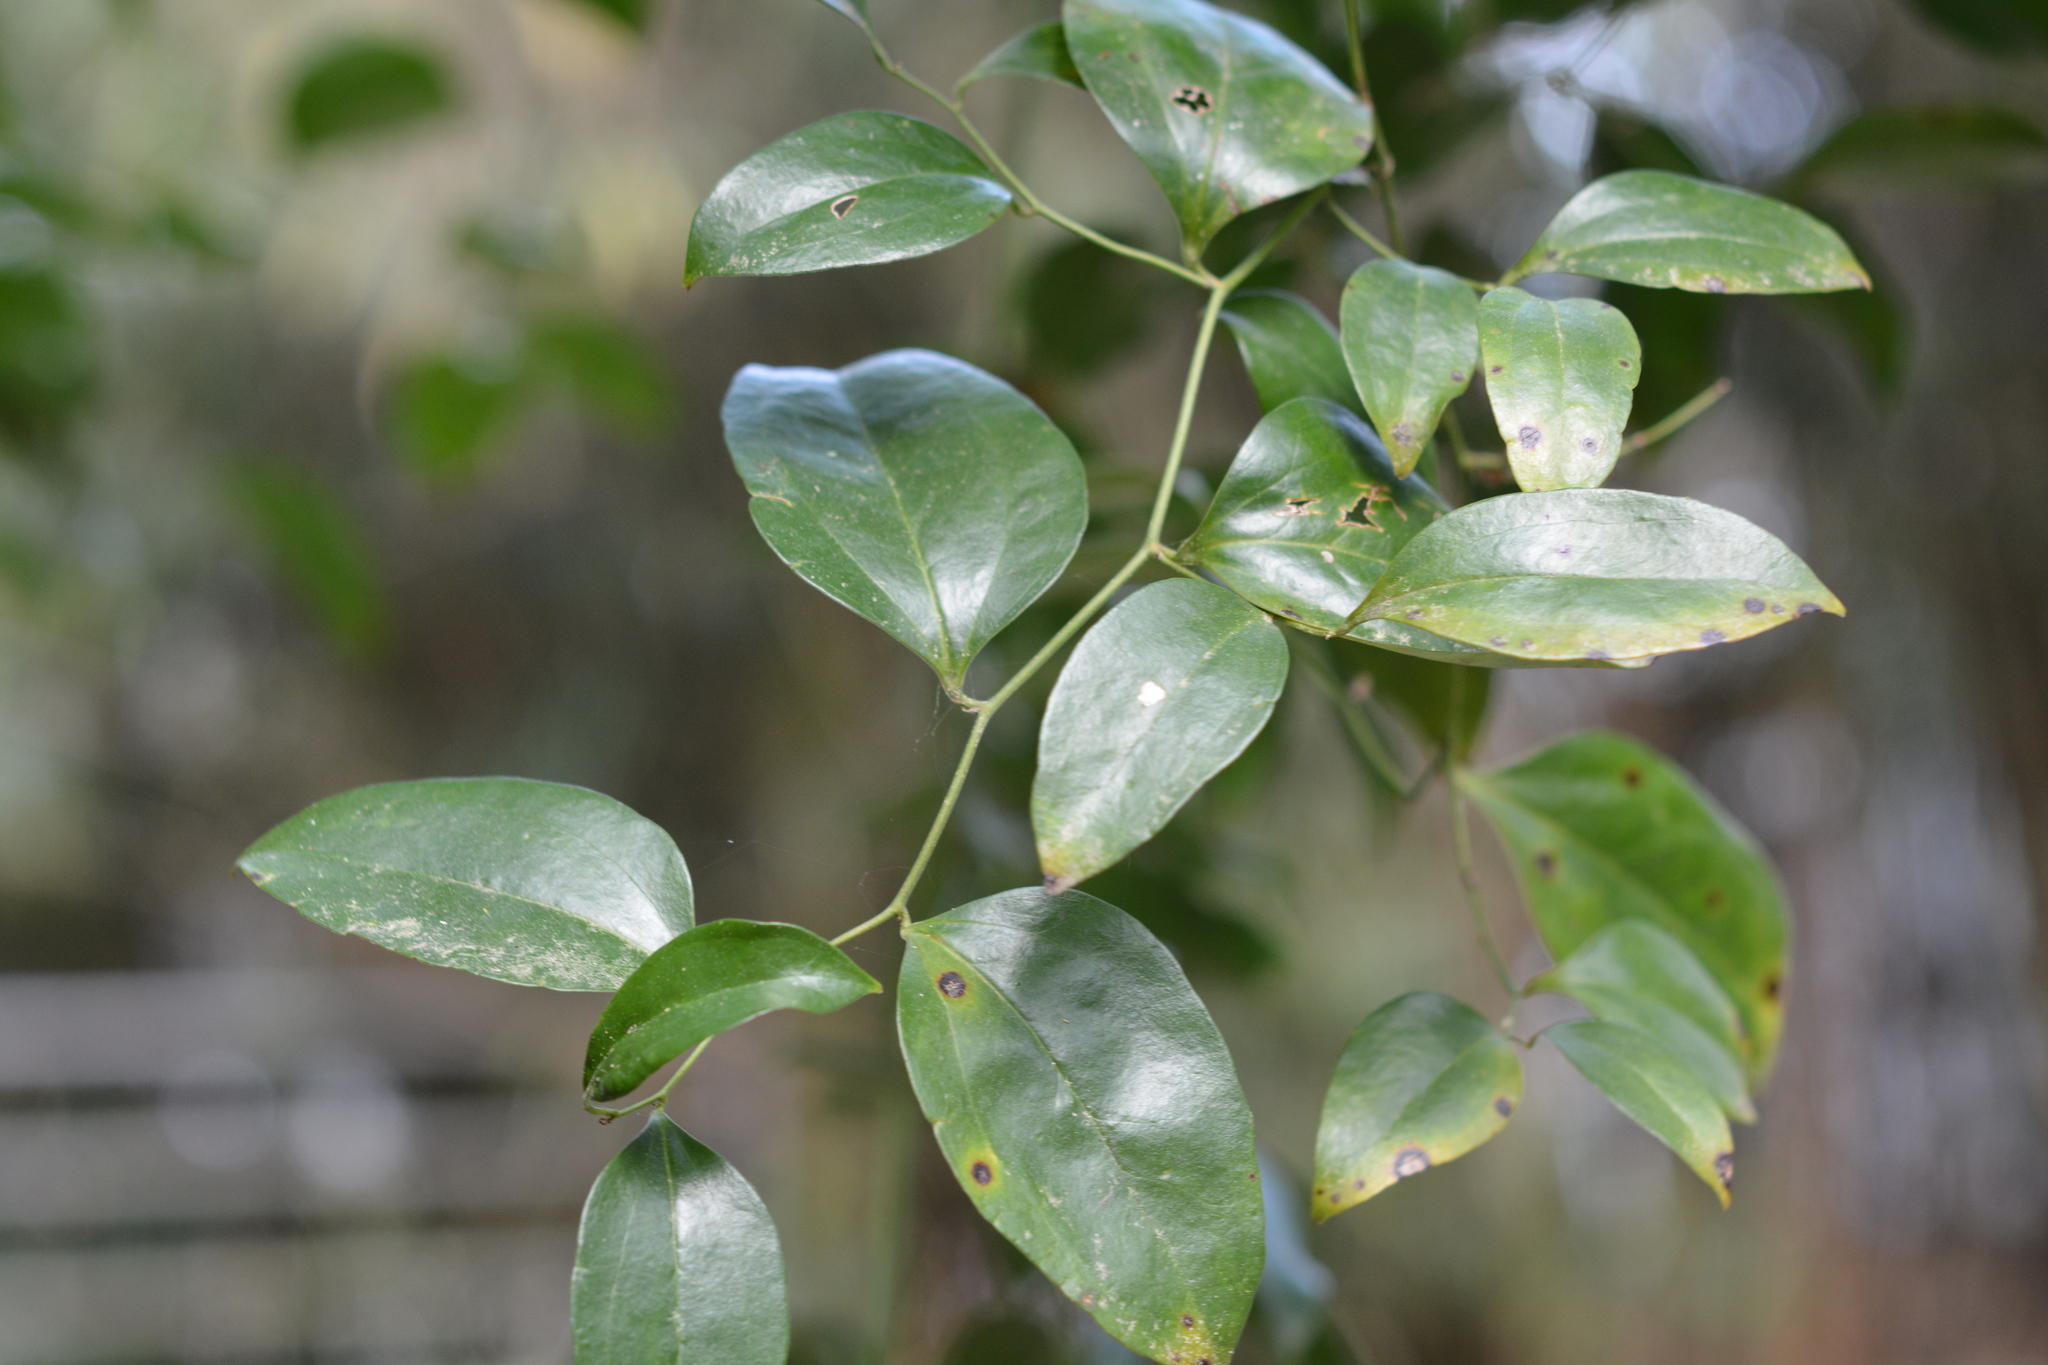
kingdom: Plantae
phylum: Tracheophyta
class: Liliopsida
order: Liliales
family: Smilacaceae
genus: Smilax
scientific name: Smilax maritima
